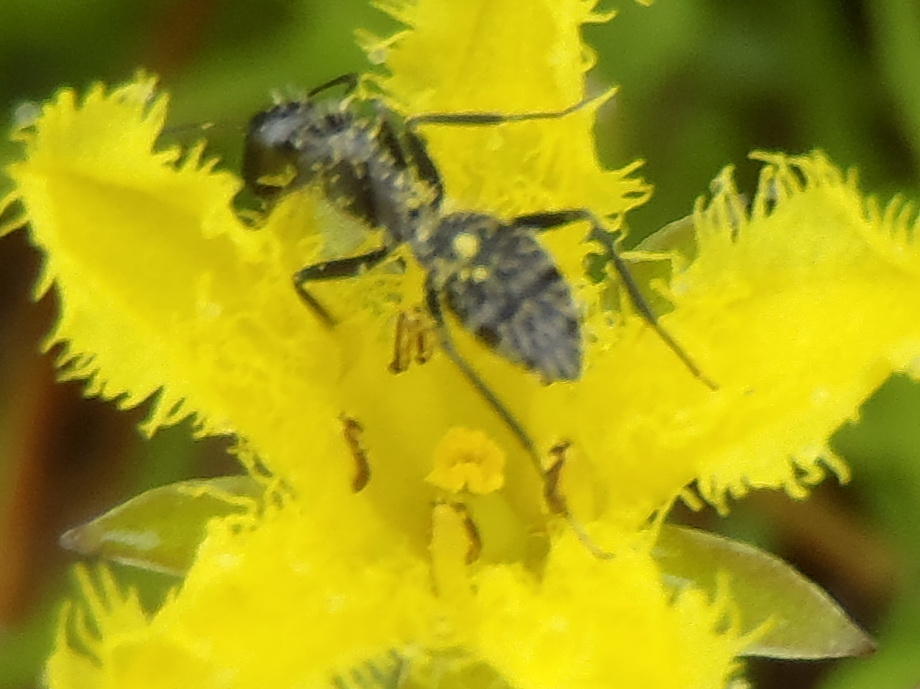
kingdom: Animalia
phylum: Arthropoda
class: Insecta
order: Hymenoptera
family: Formicidae
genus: Camponotus
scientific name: Camponotus niveosetosus
